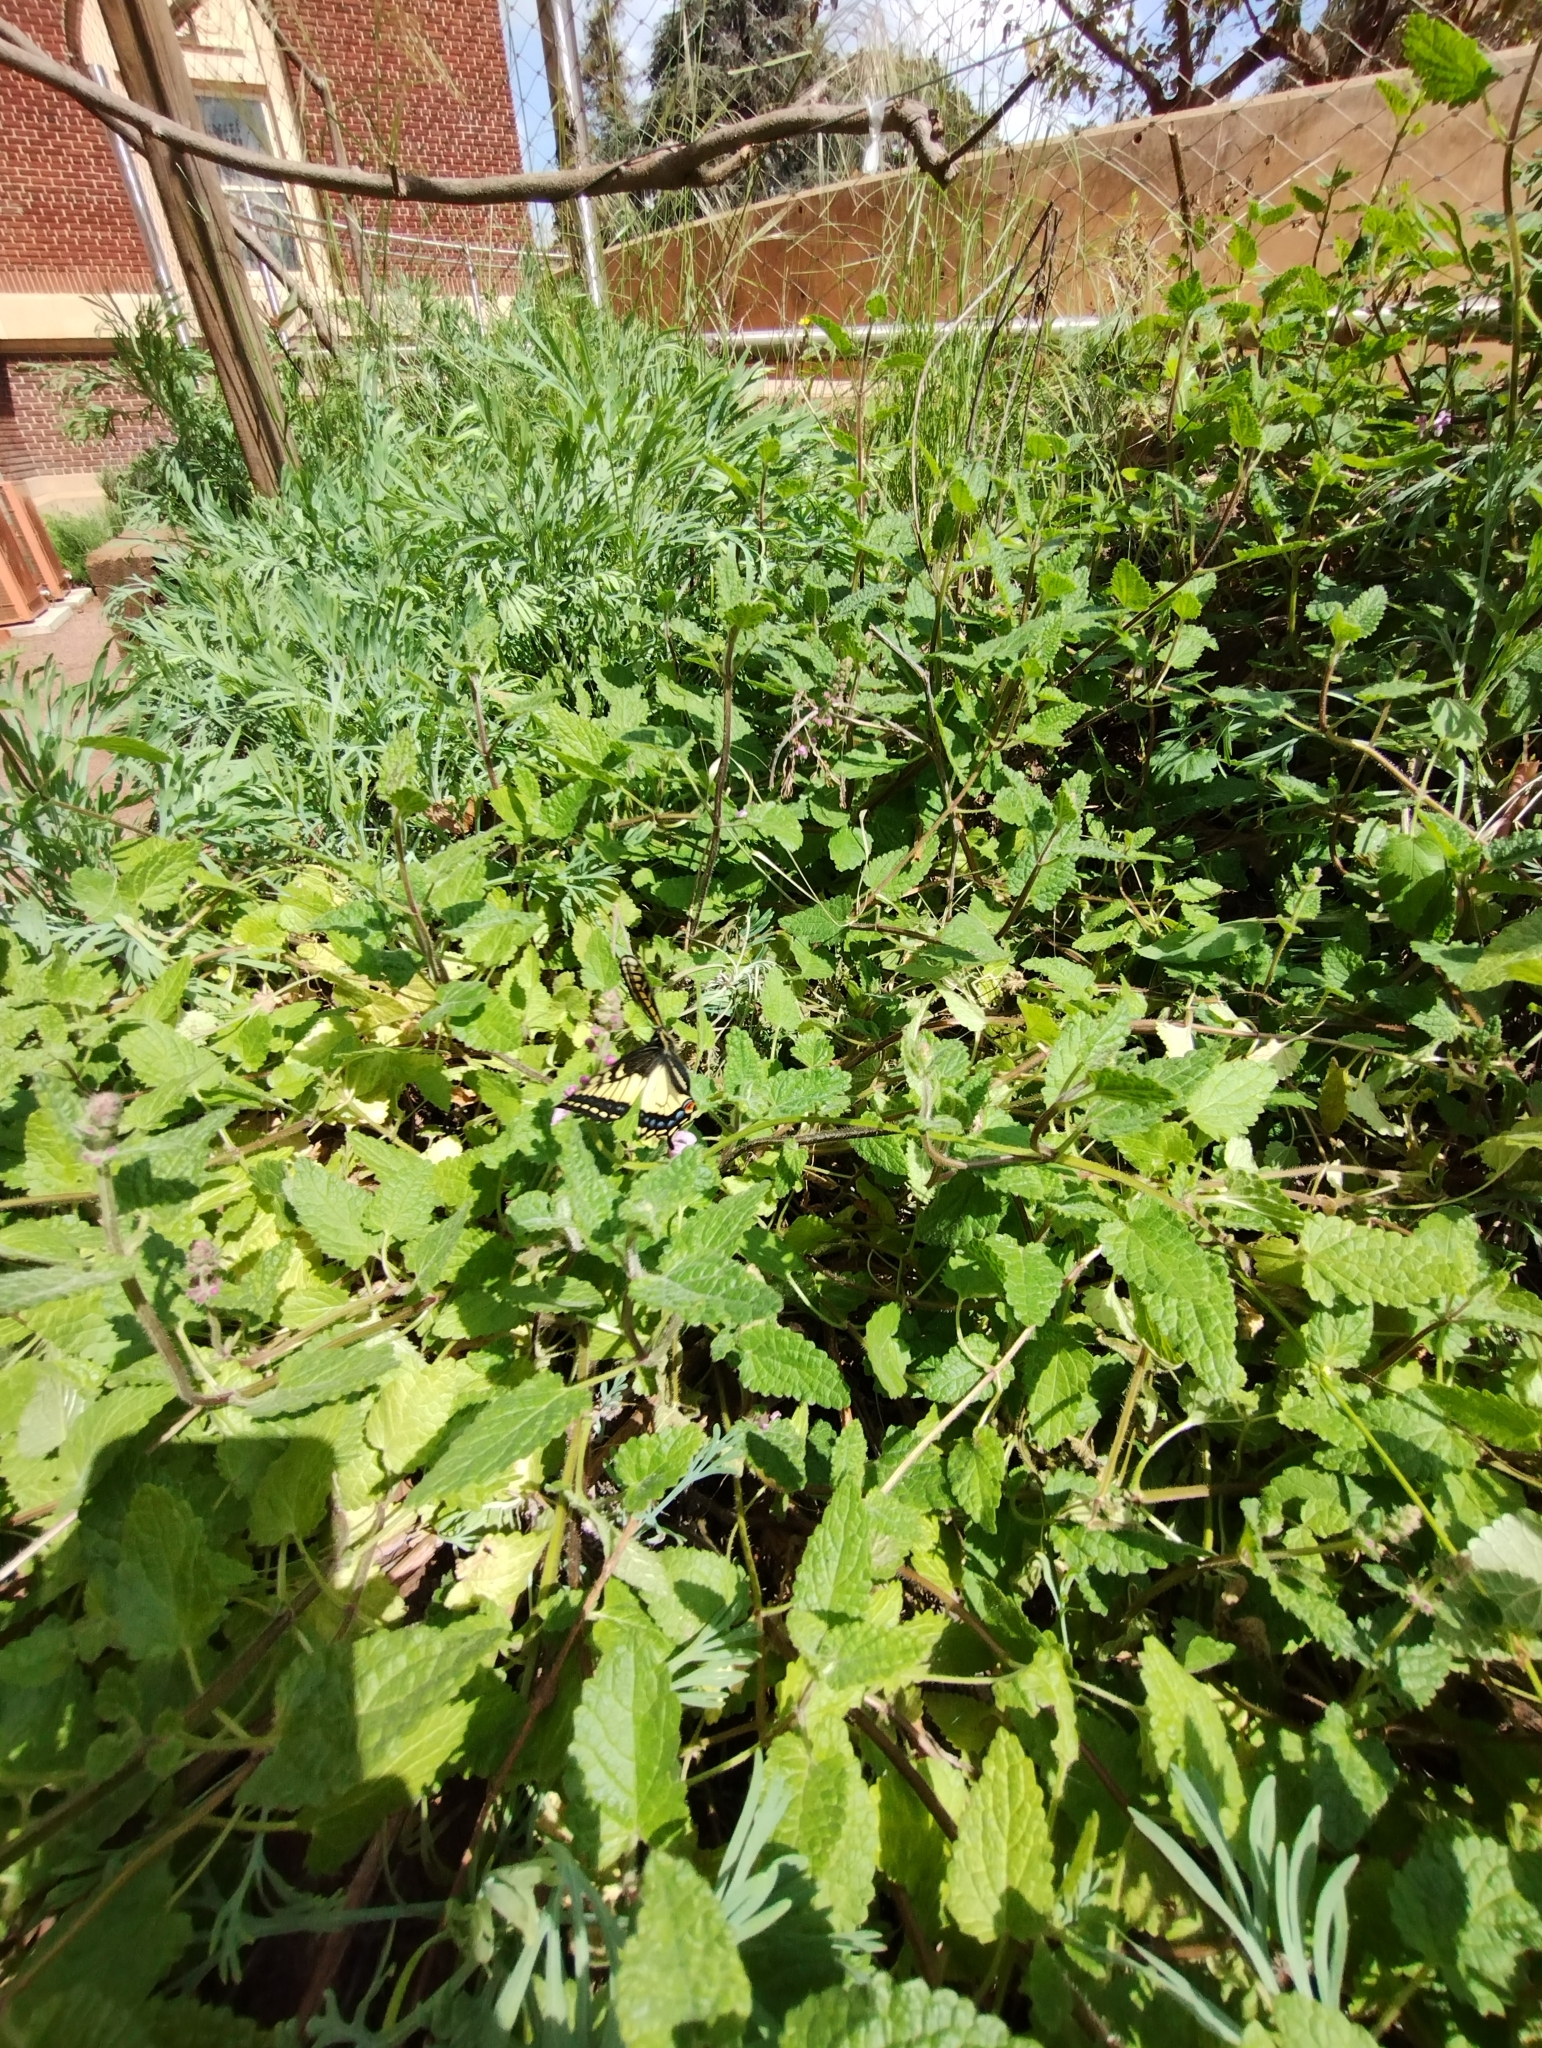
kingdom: Animalia
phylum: Arthropoda
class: Insecta
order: Lepidoptera
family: Papilionidae
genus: Papilio
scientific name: Papilio zelicaon
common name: Anise swallowtail
